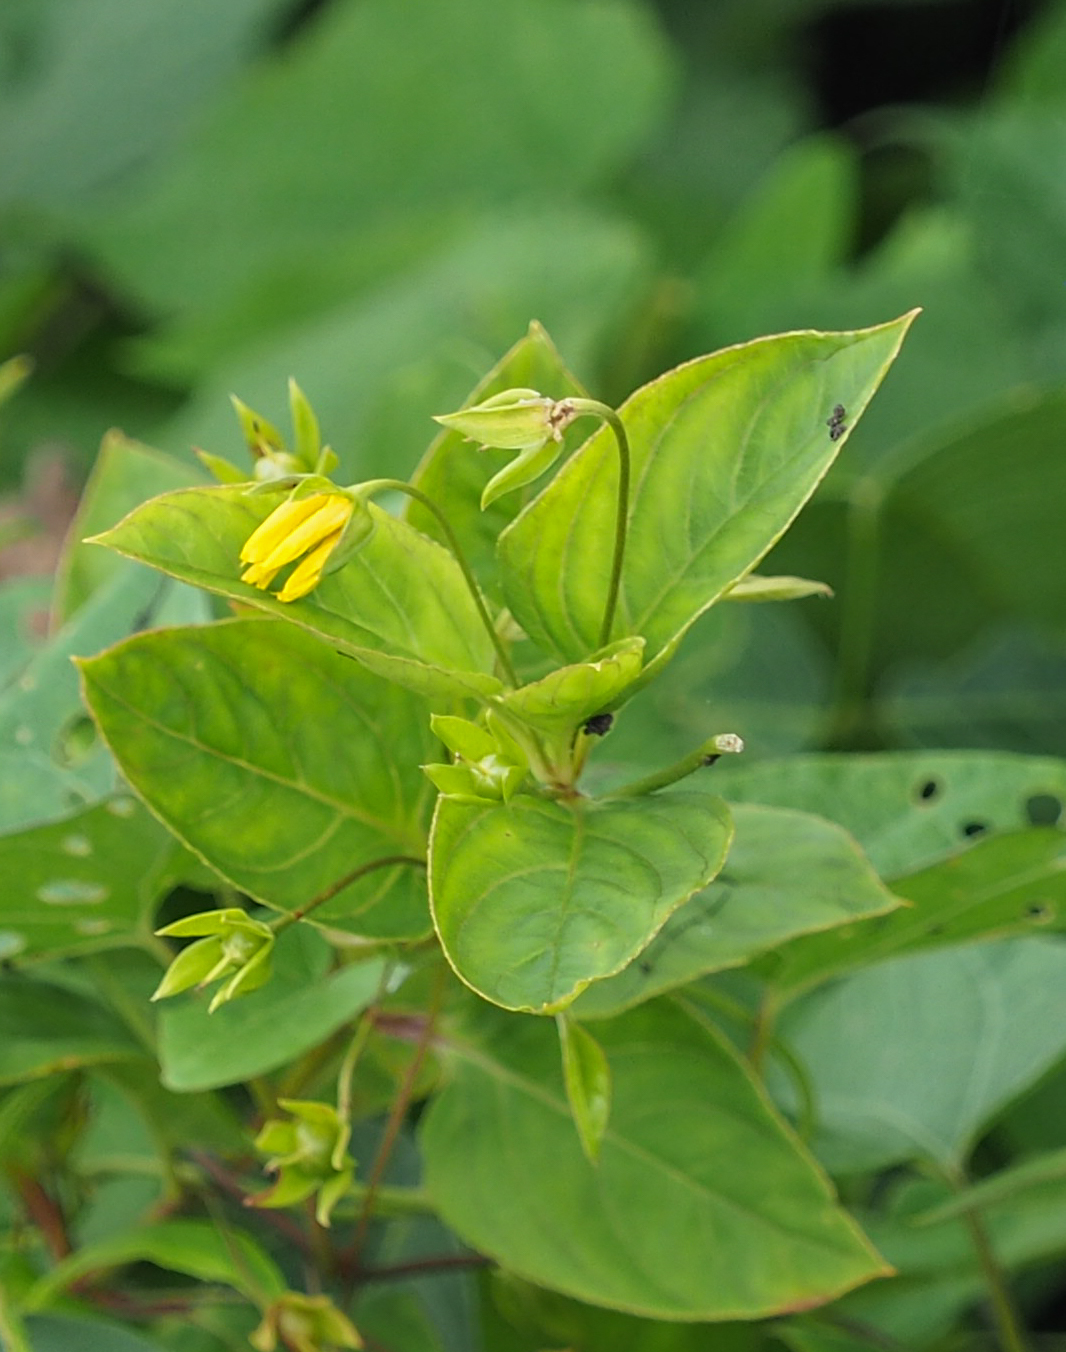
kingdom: Plantae
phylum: Tracheophyta
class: Magnoliopsida
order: Ericales
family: Primulaceae
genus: Lysimachia
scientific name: Lysimachia ciliata
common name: Fringed loosestrife
